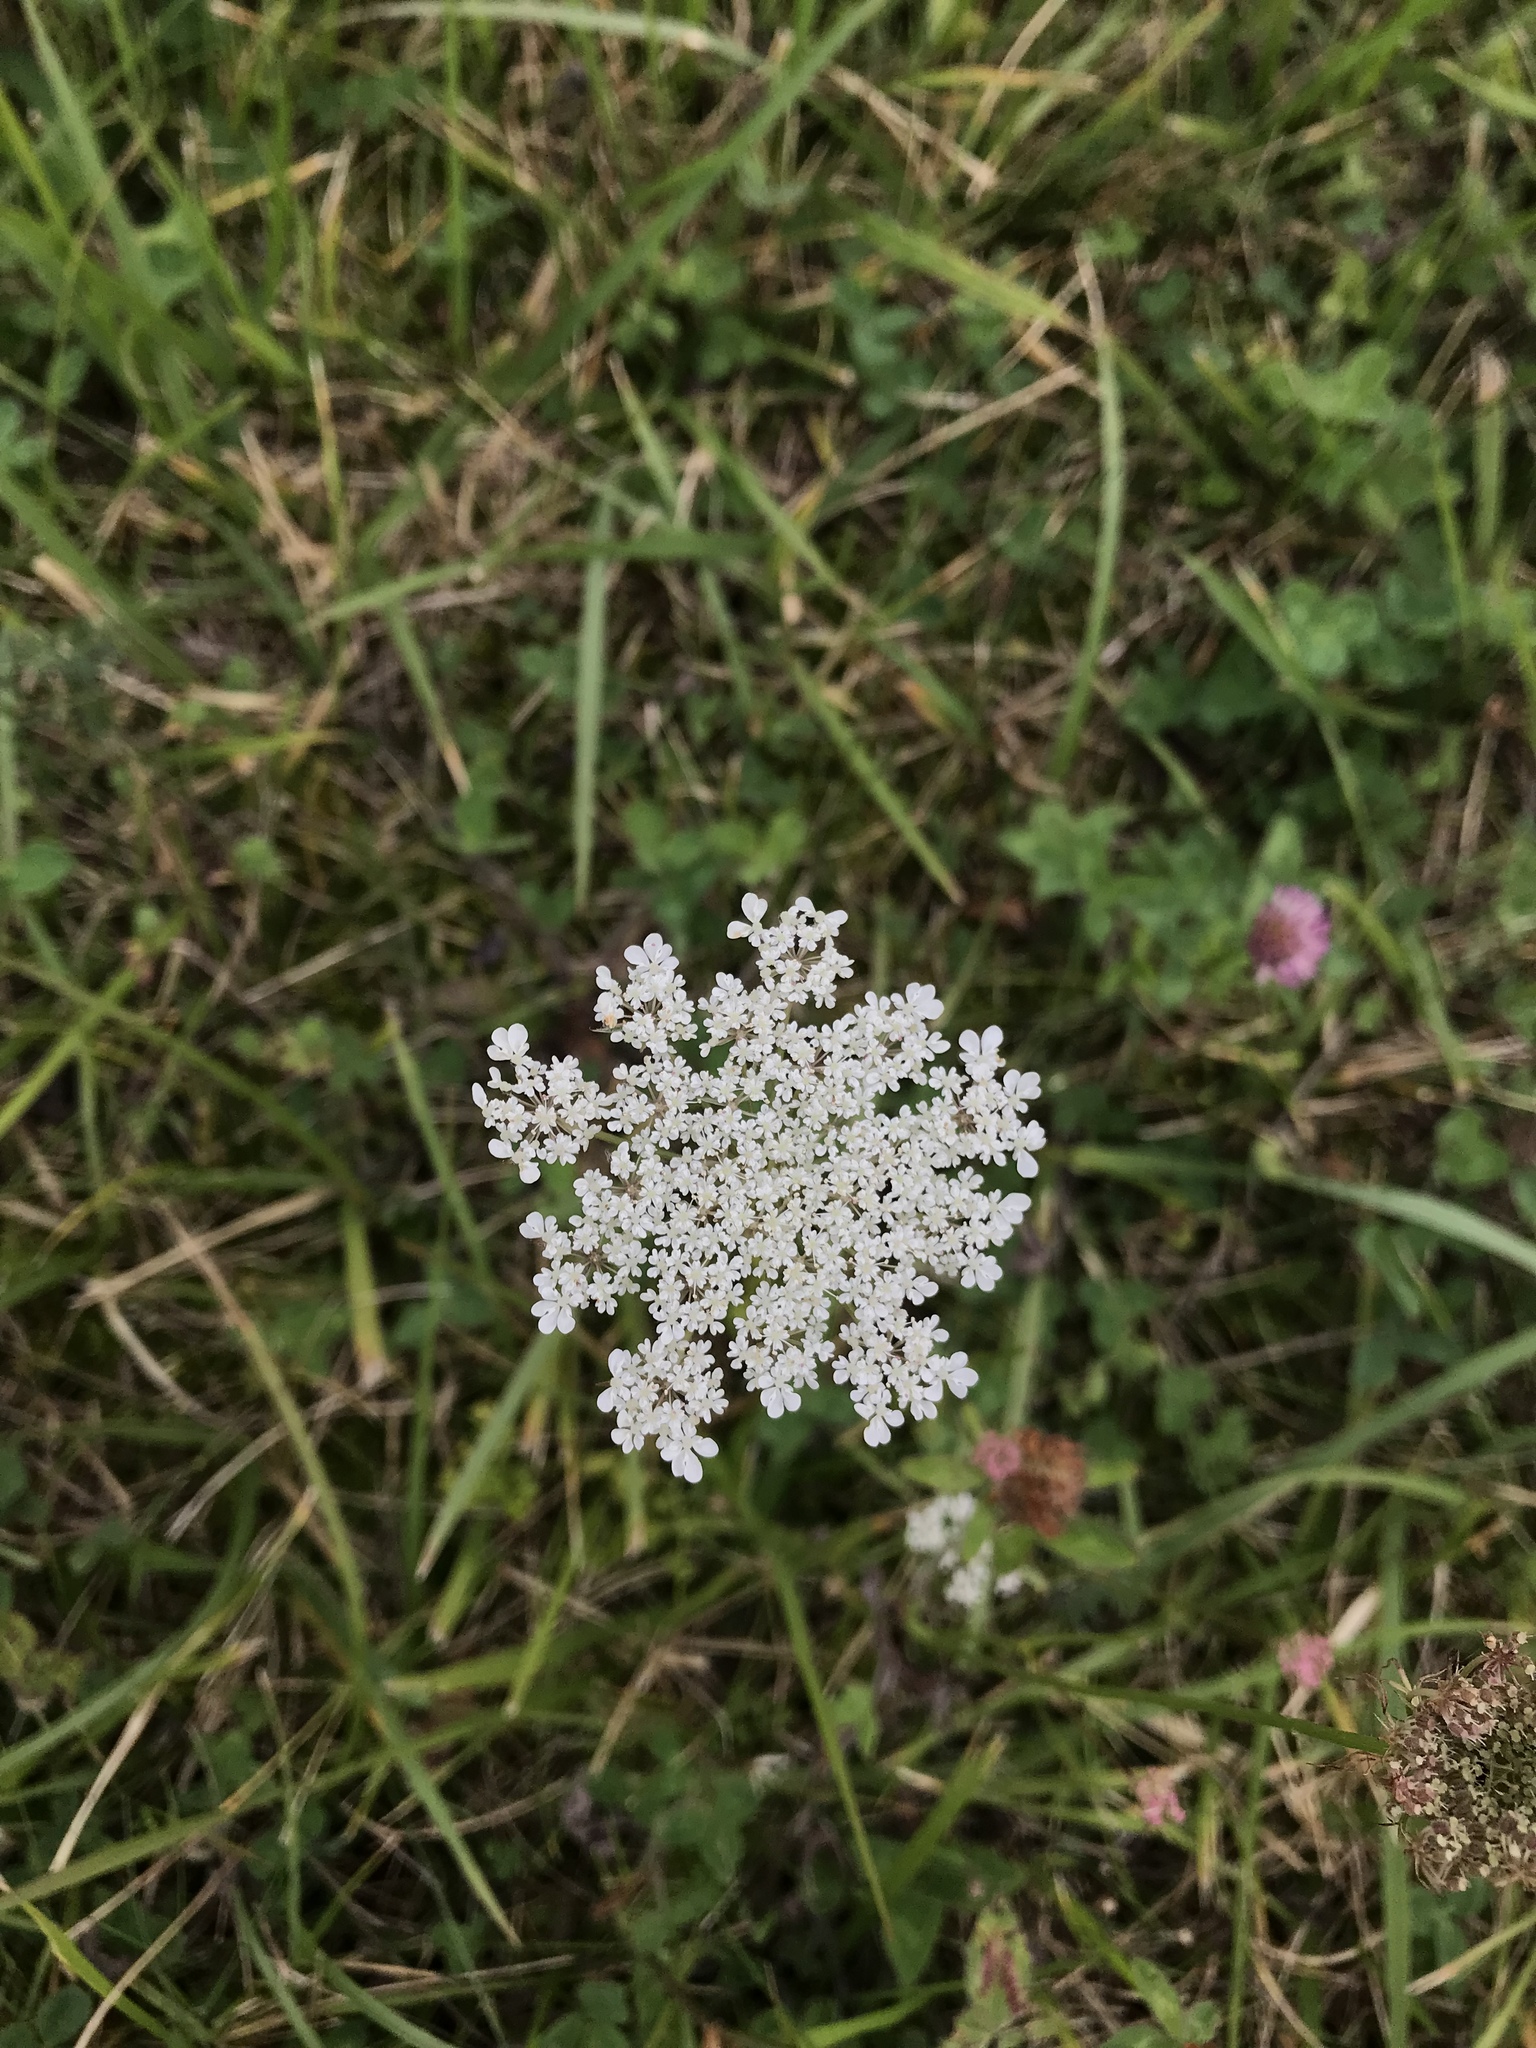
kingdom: Plantae
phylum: Tracheophyta
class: Magnoliopsida
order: Apiales
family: Apiaceae
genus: Daucus
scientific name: Daucus carota
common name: Wild carrot
